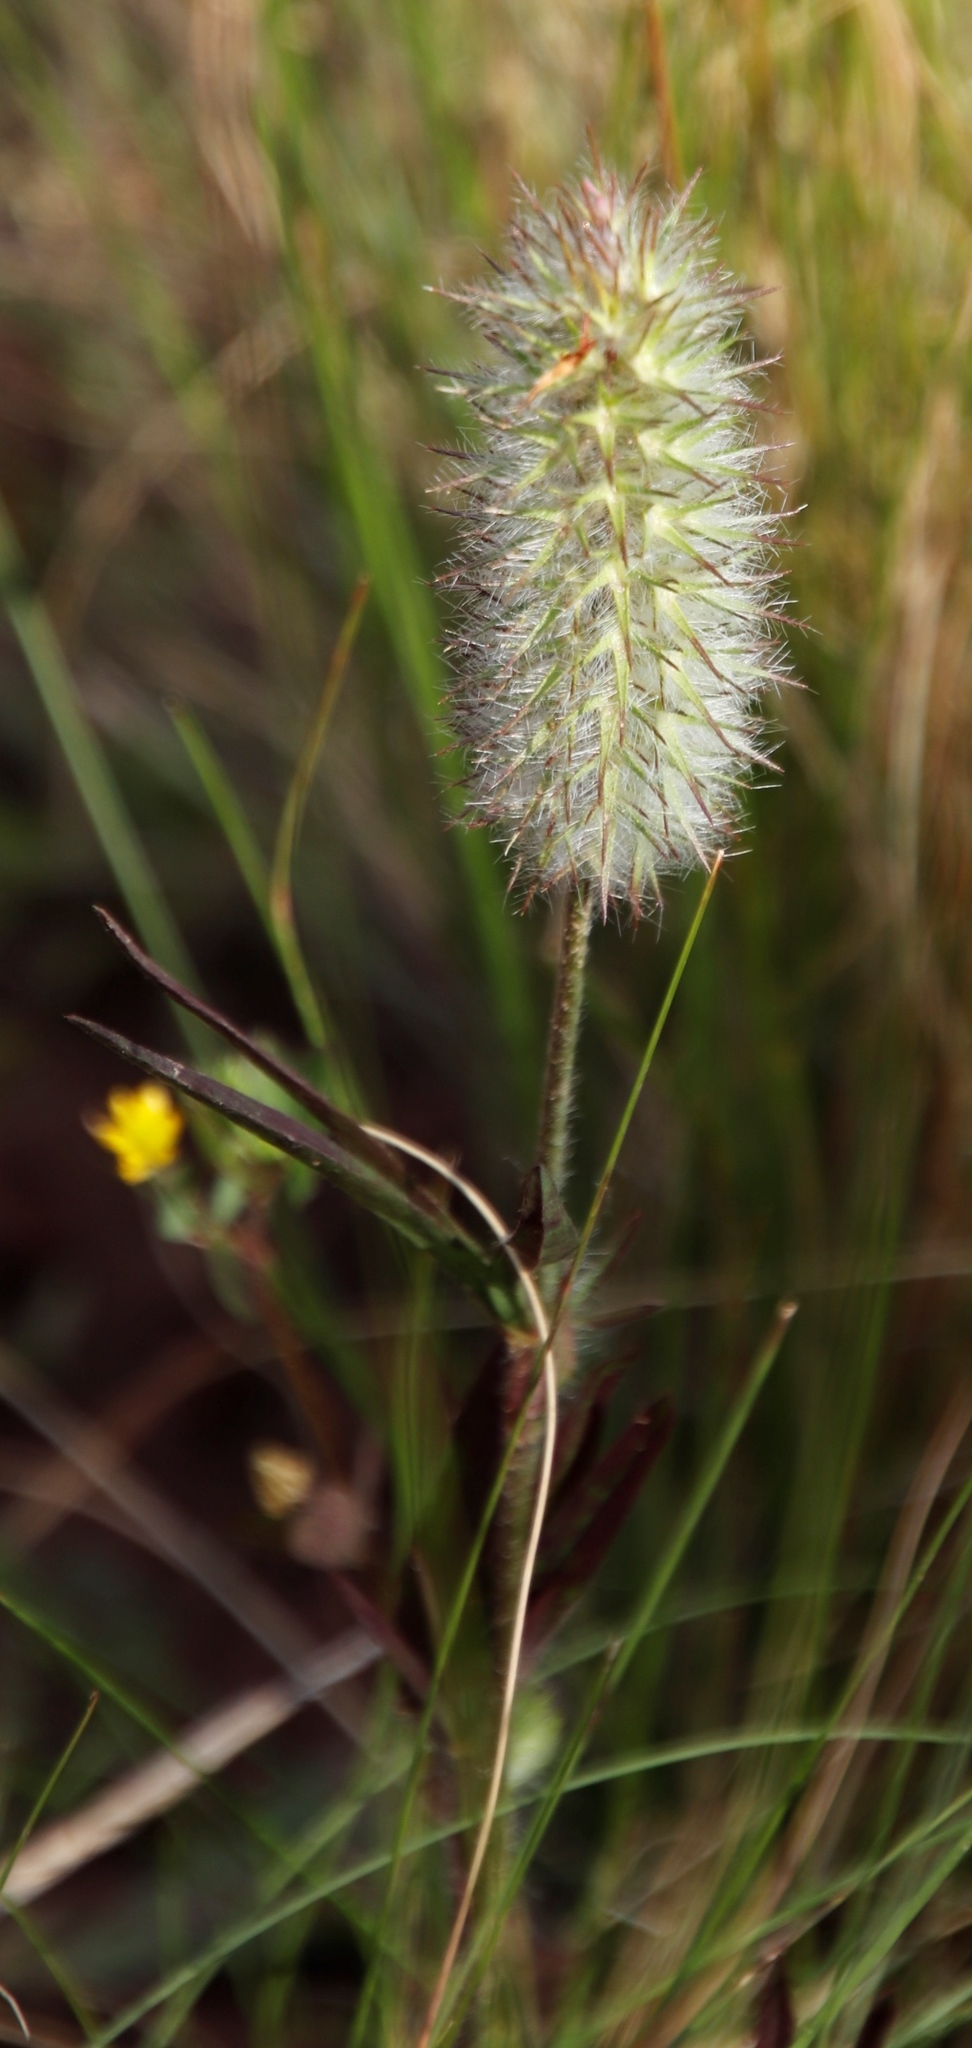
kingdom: Plantae
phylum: Tracheophyta
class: Magnoliopsida
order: Fabales
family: Fabaceae
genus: Trifolium
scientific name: Trifolium angustifolium
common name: Narrow clover
